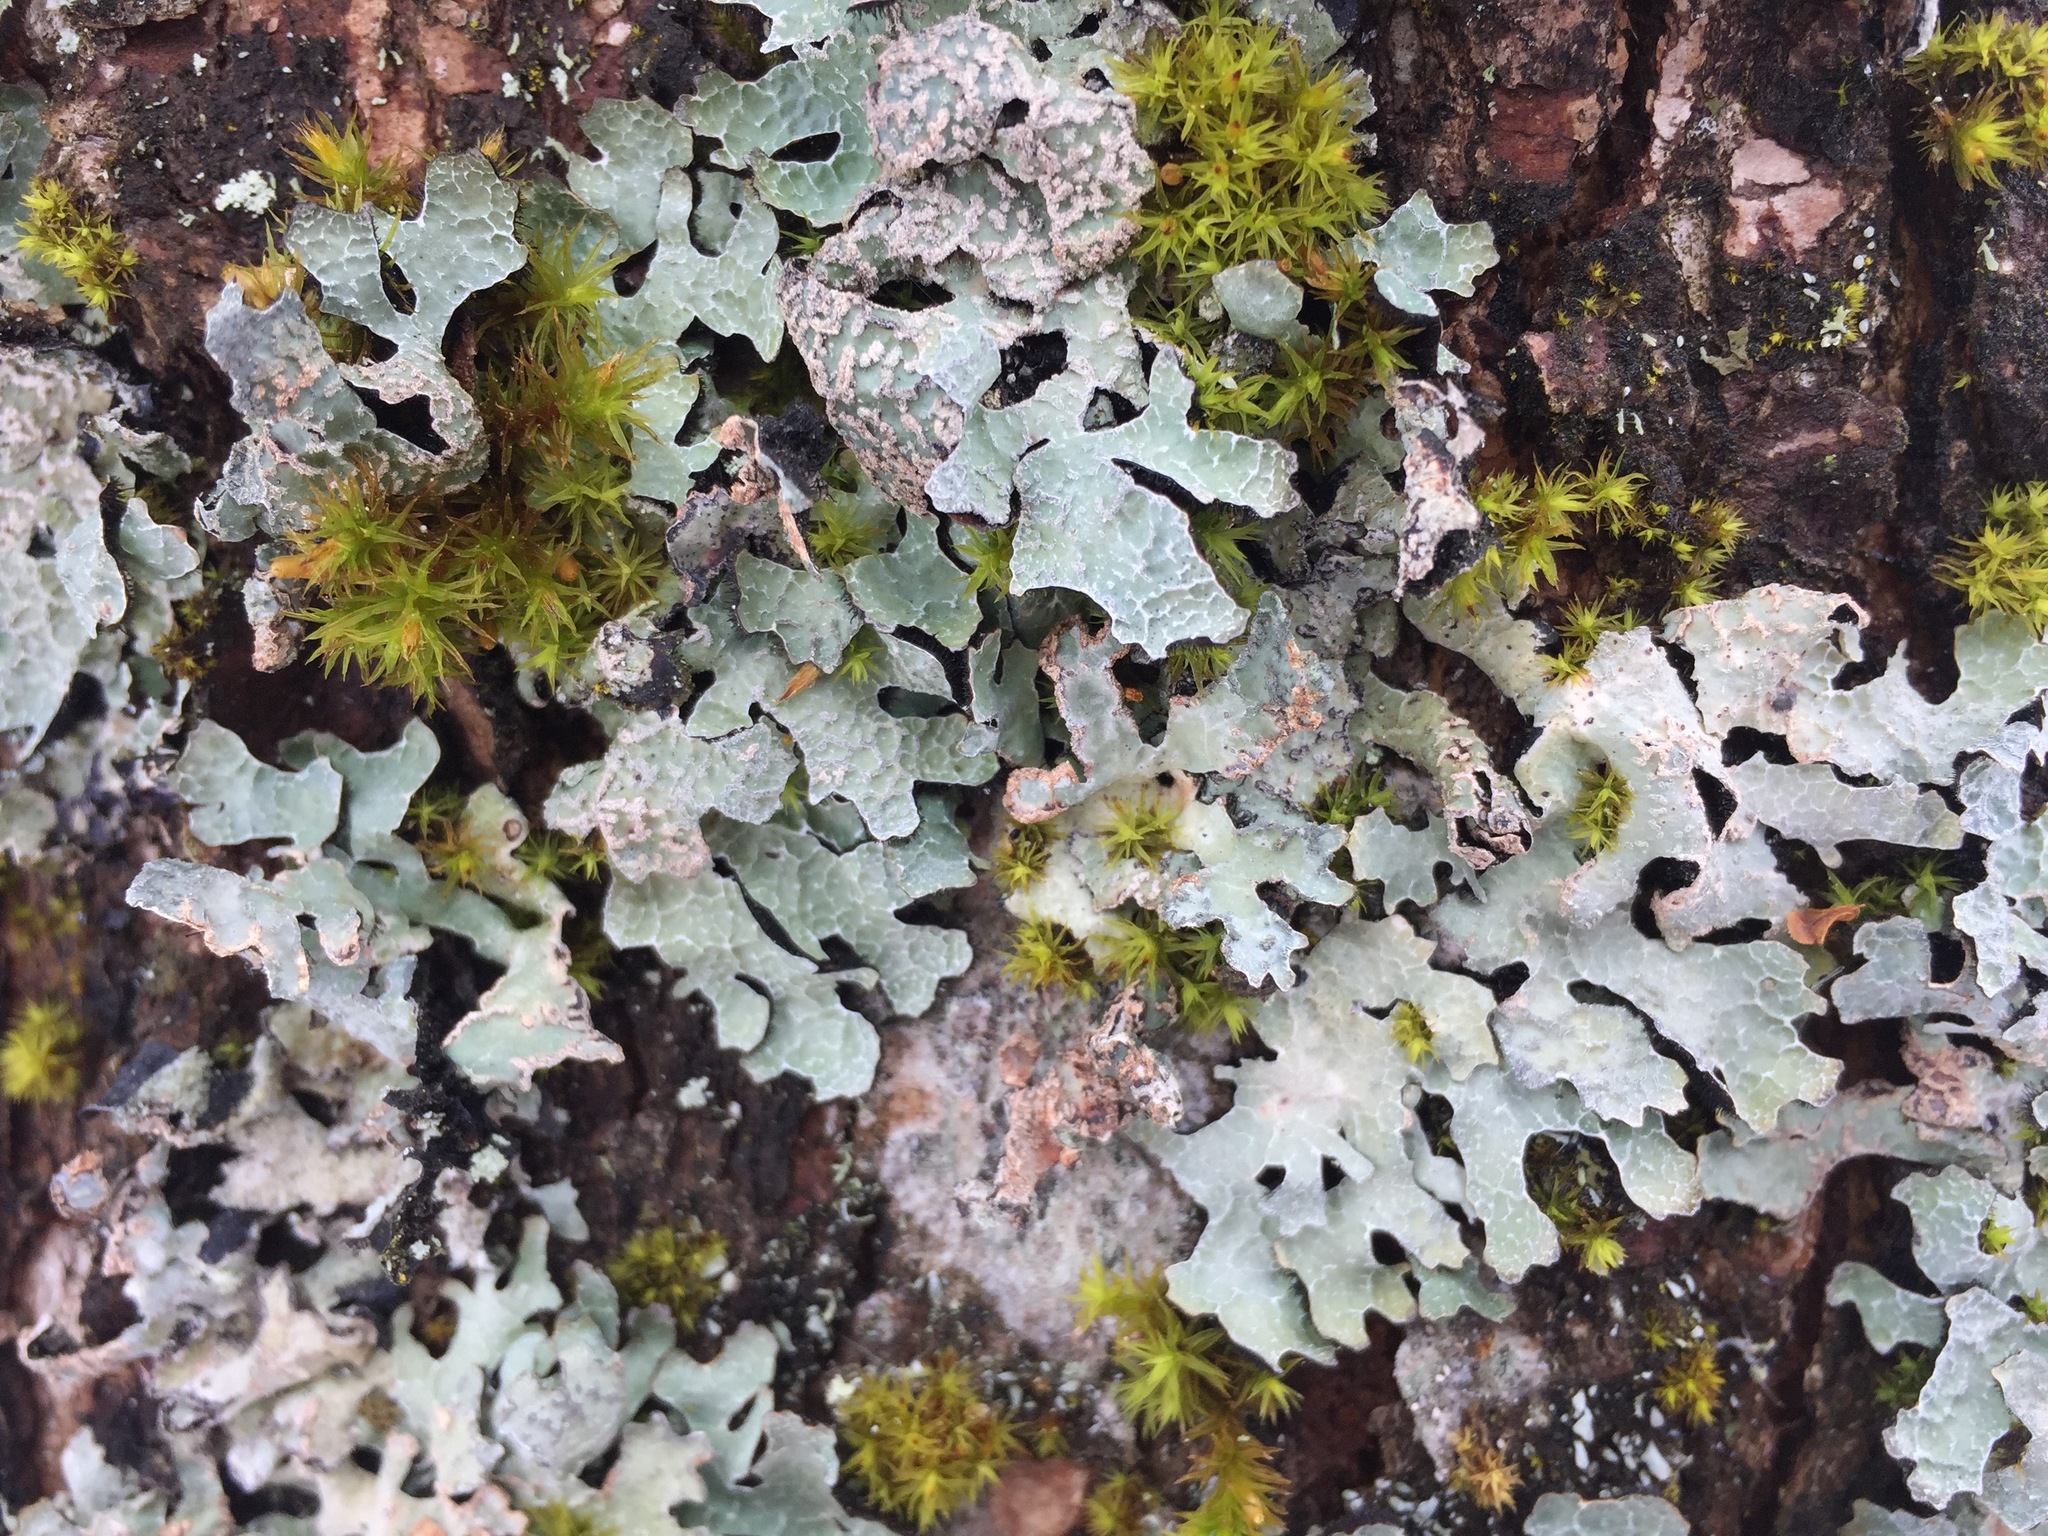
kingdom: Fungi
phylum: Ascomycota
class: Lecanoromycetes
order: Lecanorales
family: Parmeliaceae
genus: Parmelia
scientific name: Parmelia sulcata
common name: Netted shield lichen
